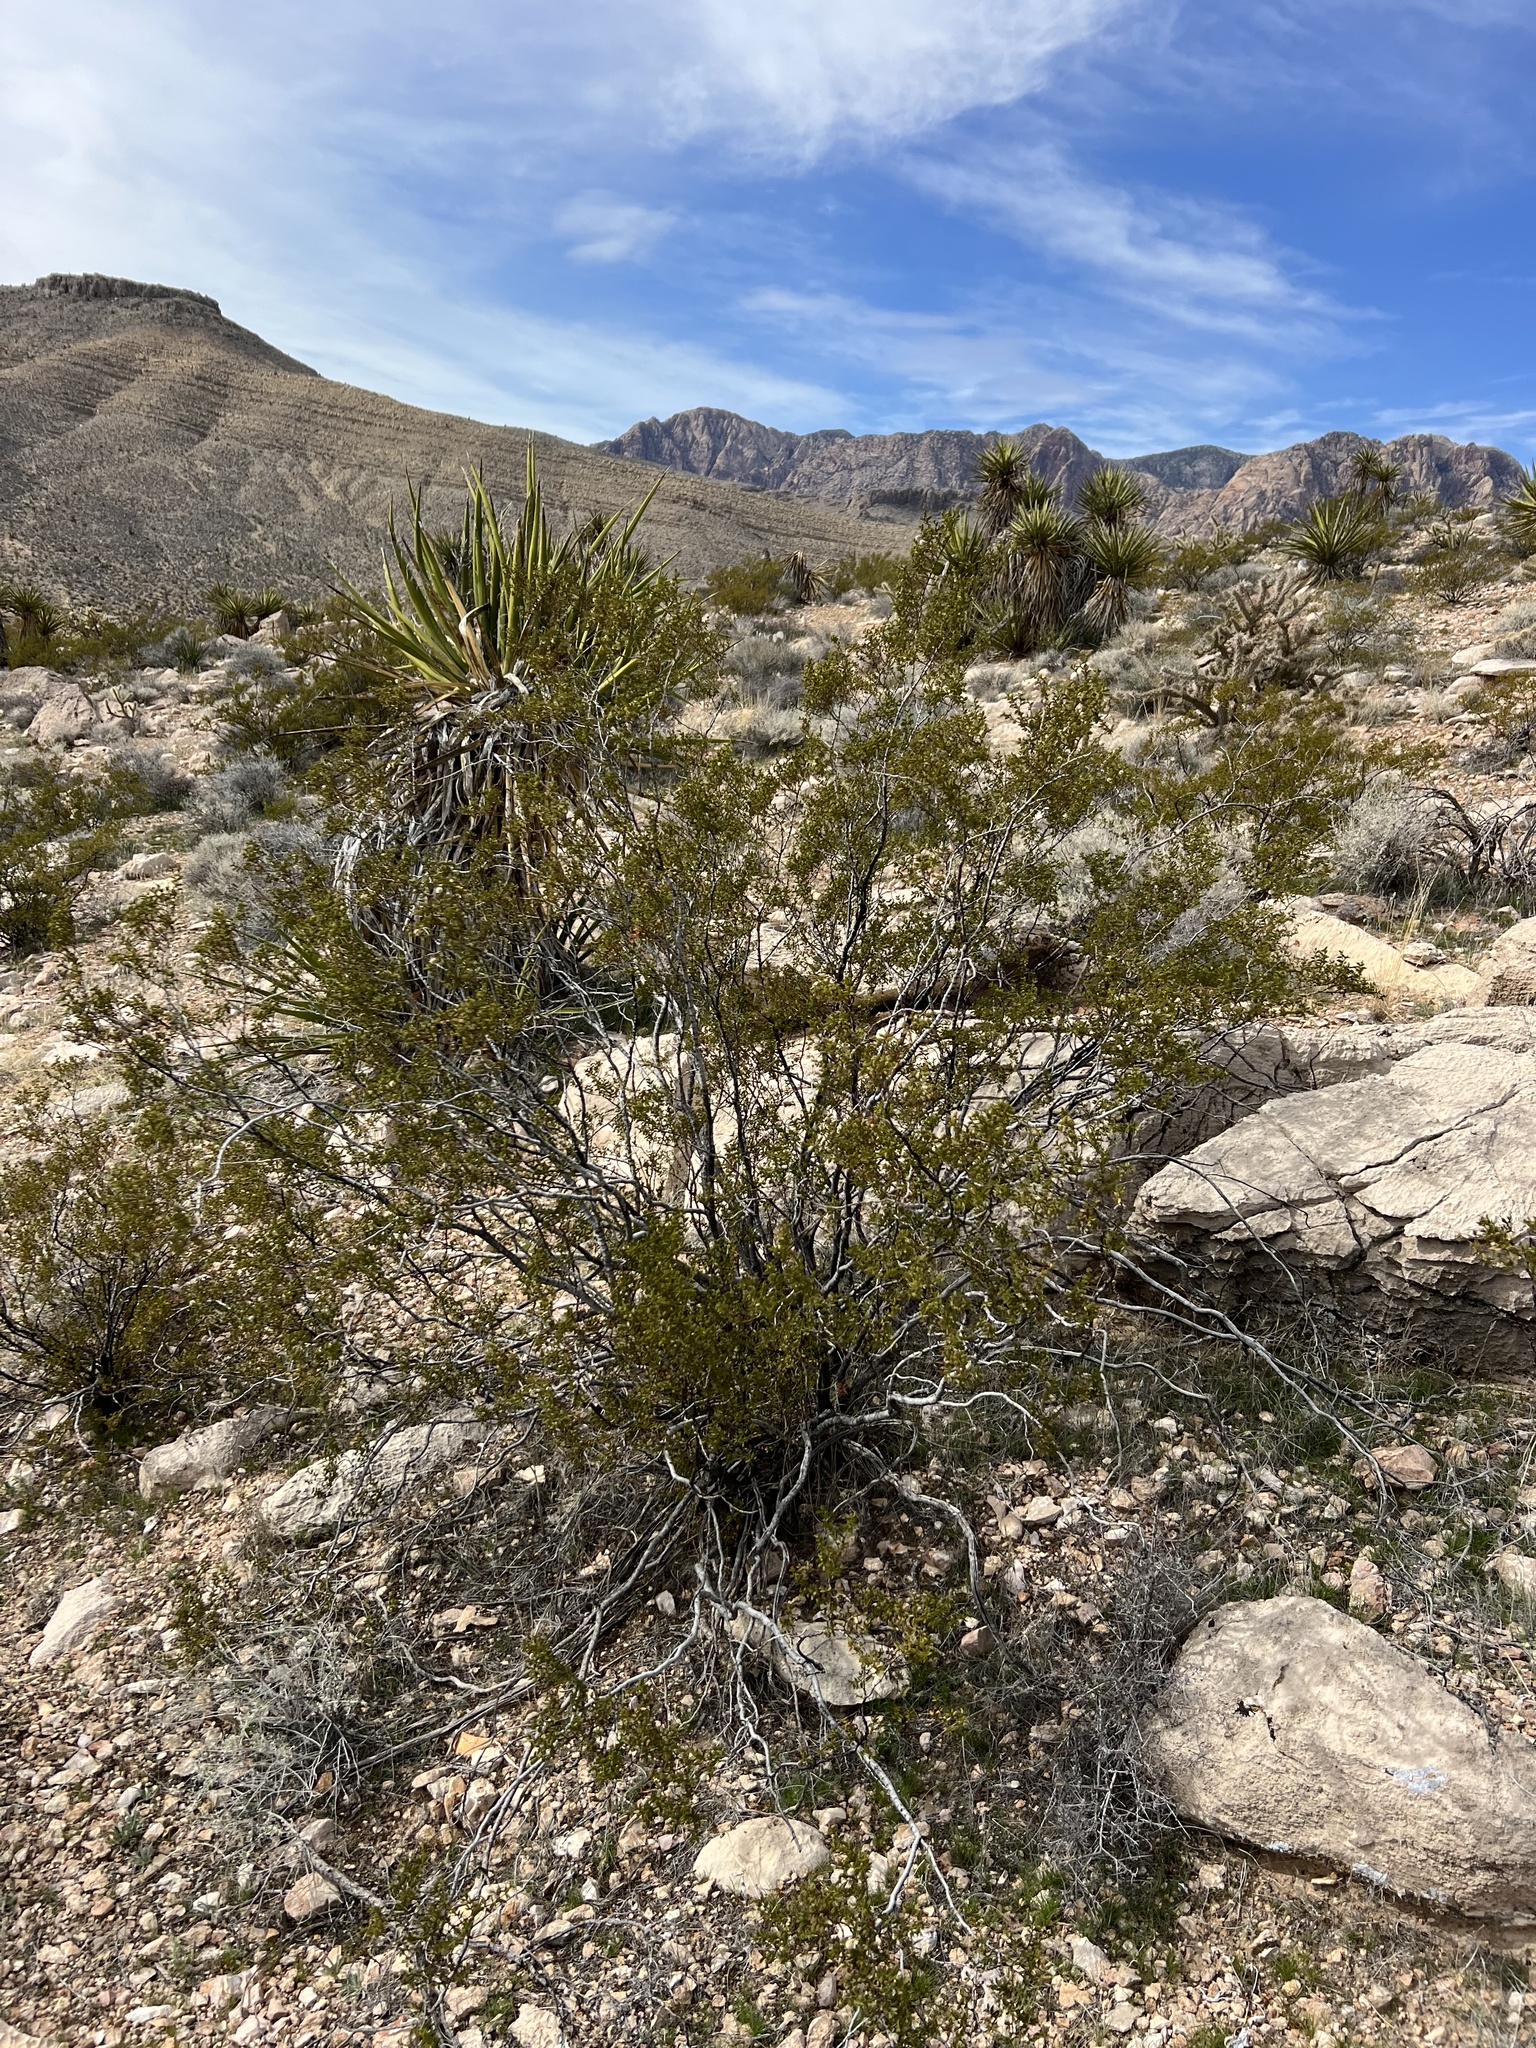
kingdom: Plantae
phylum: Tracheophyta
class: Magnoliopsida
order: Zygophyllales
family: Zygophyllaceae
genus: Larrea
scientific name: Larrea tridentata
